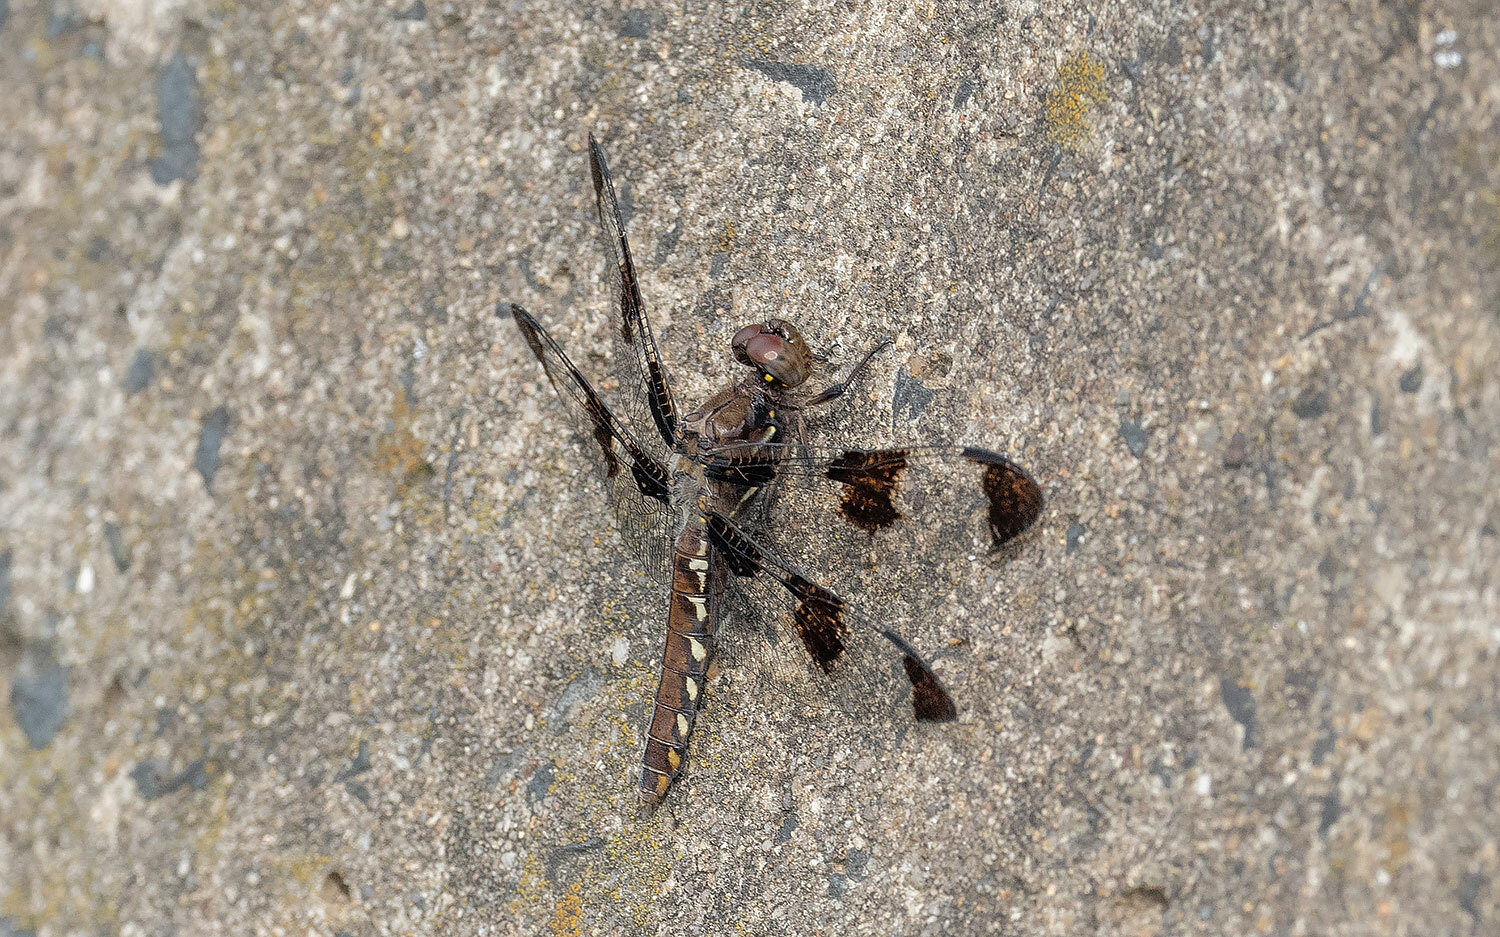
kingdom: Animalia
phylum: Arthropoda
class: Insecta
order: Odonata
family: Libellulidae
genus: Plathemis
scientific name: Plathemis lydia
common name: Common whitetail
